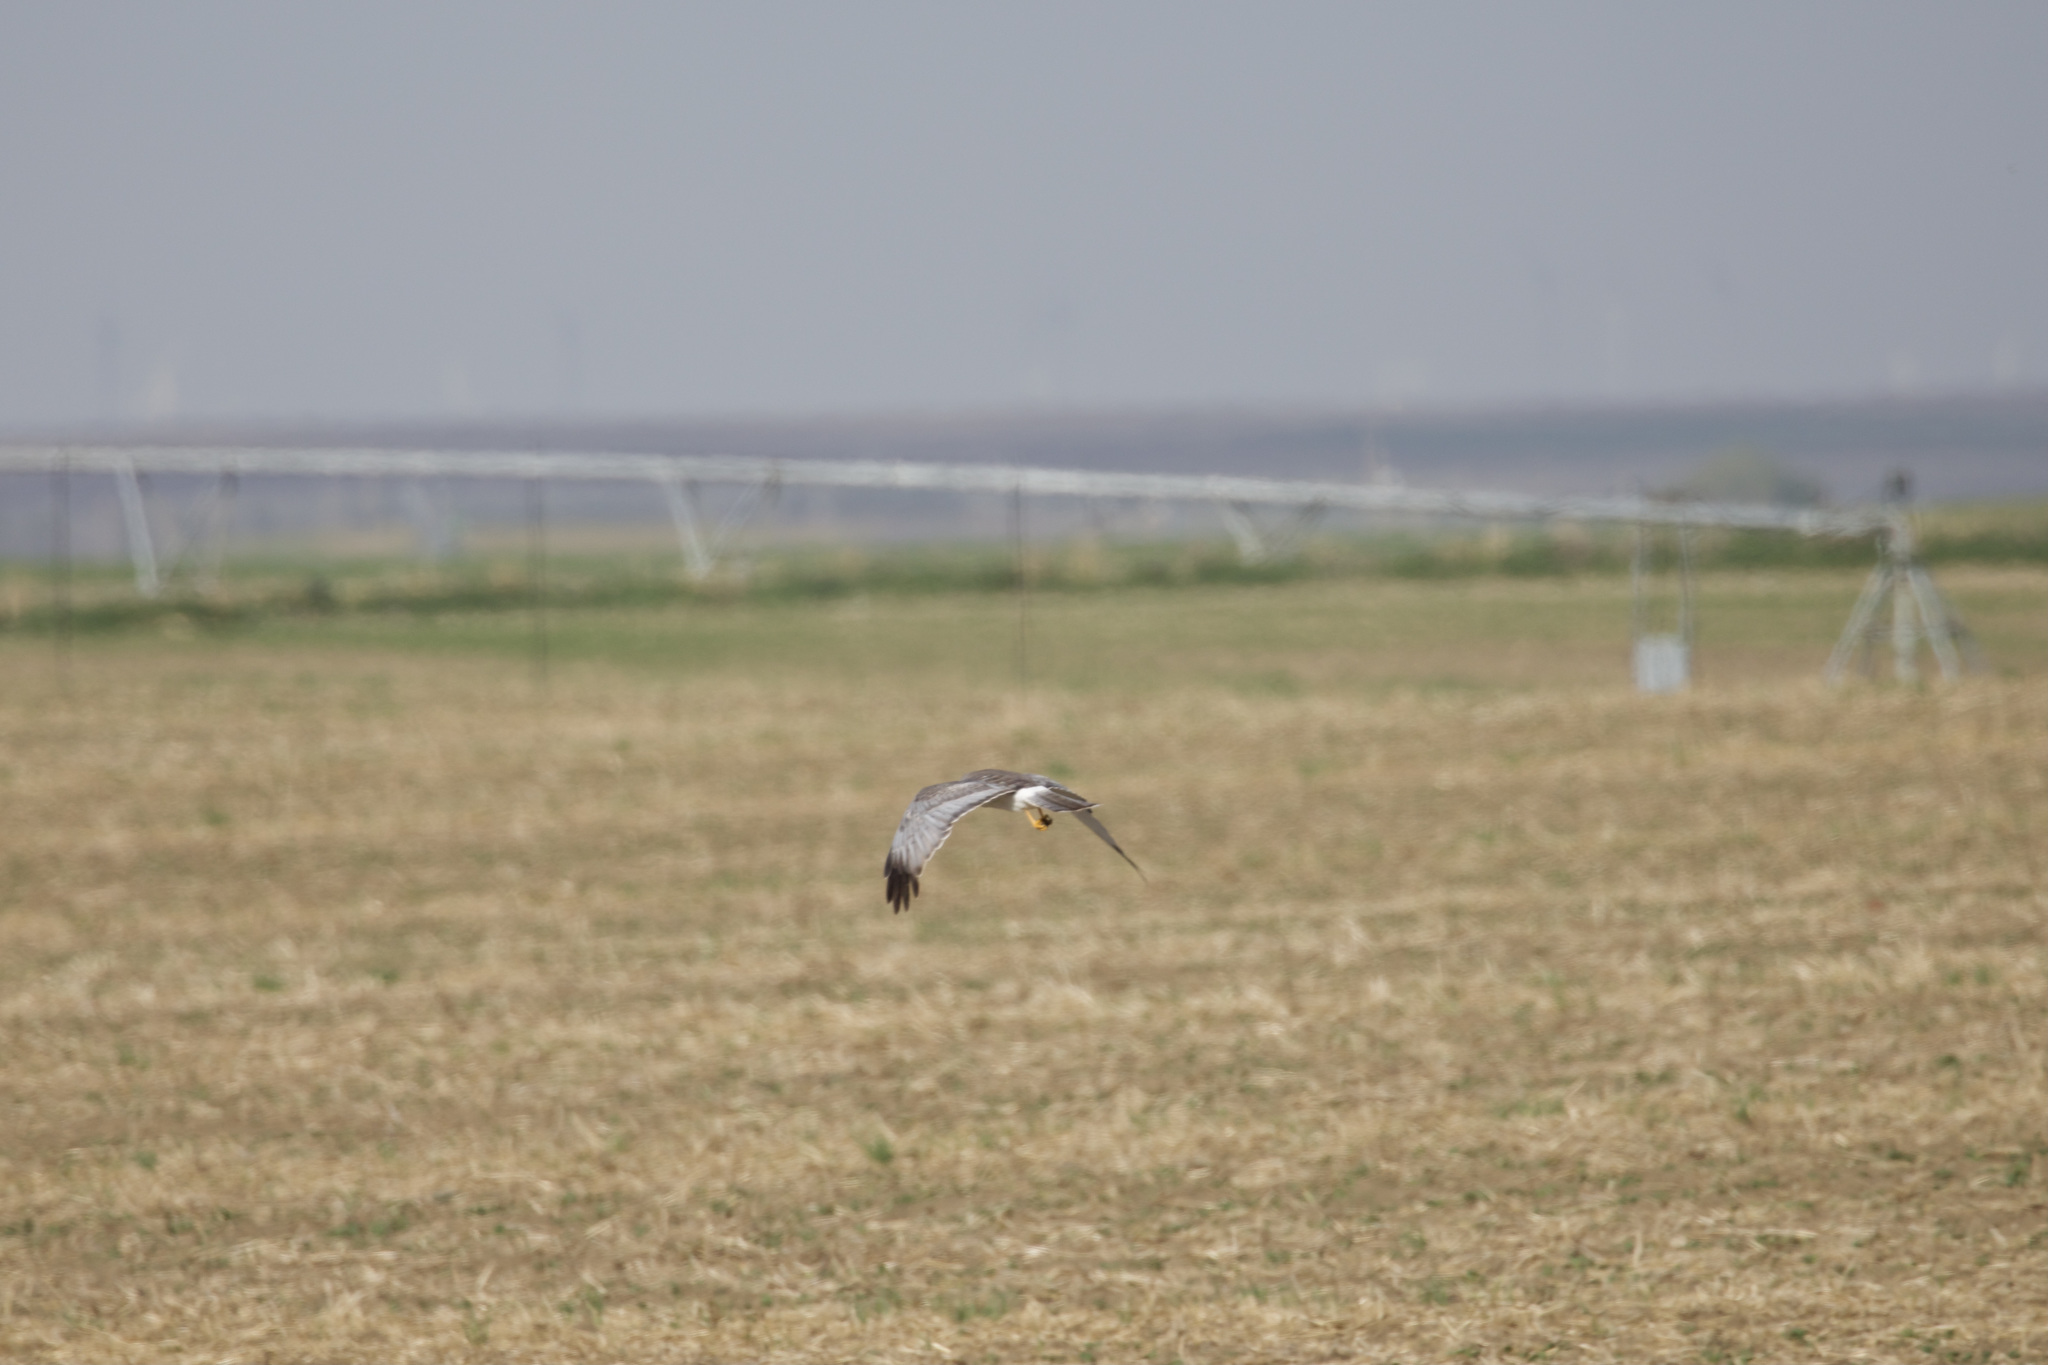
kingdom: Animalia
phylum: Chordata
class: Aves
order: Accipitriformes
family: Accipitridae
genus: Circus
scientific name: Circus cyaneus
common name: Hen harrier
